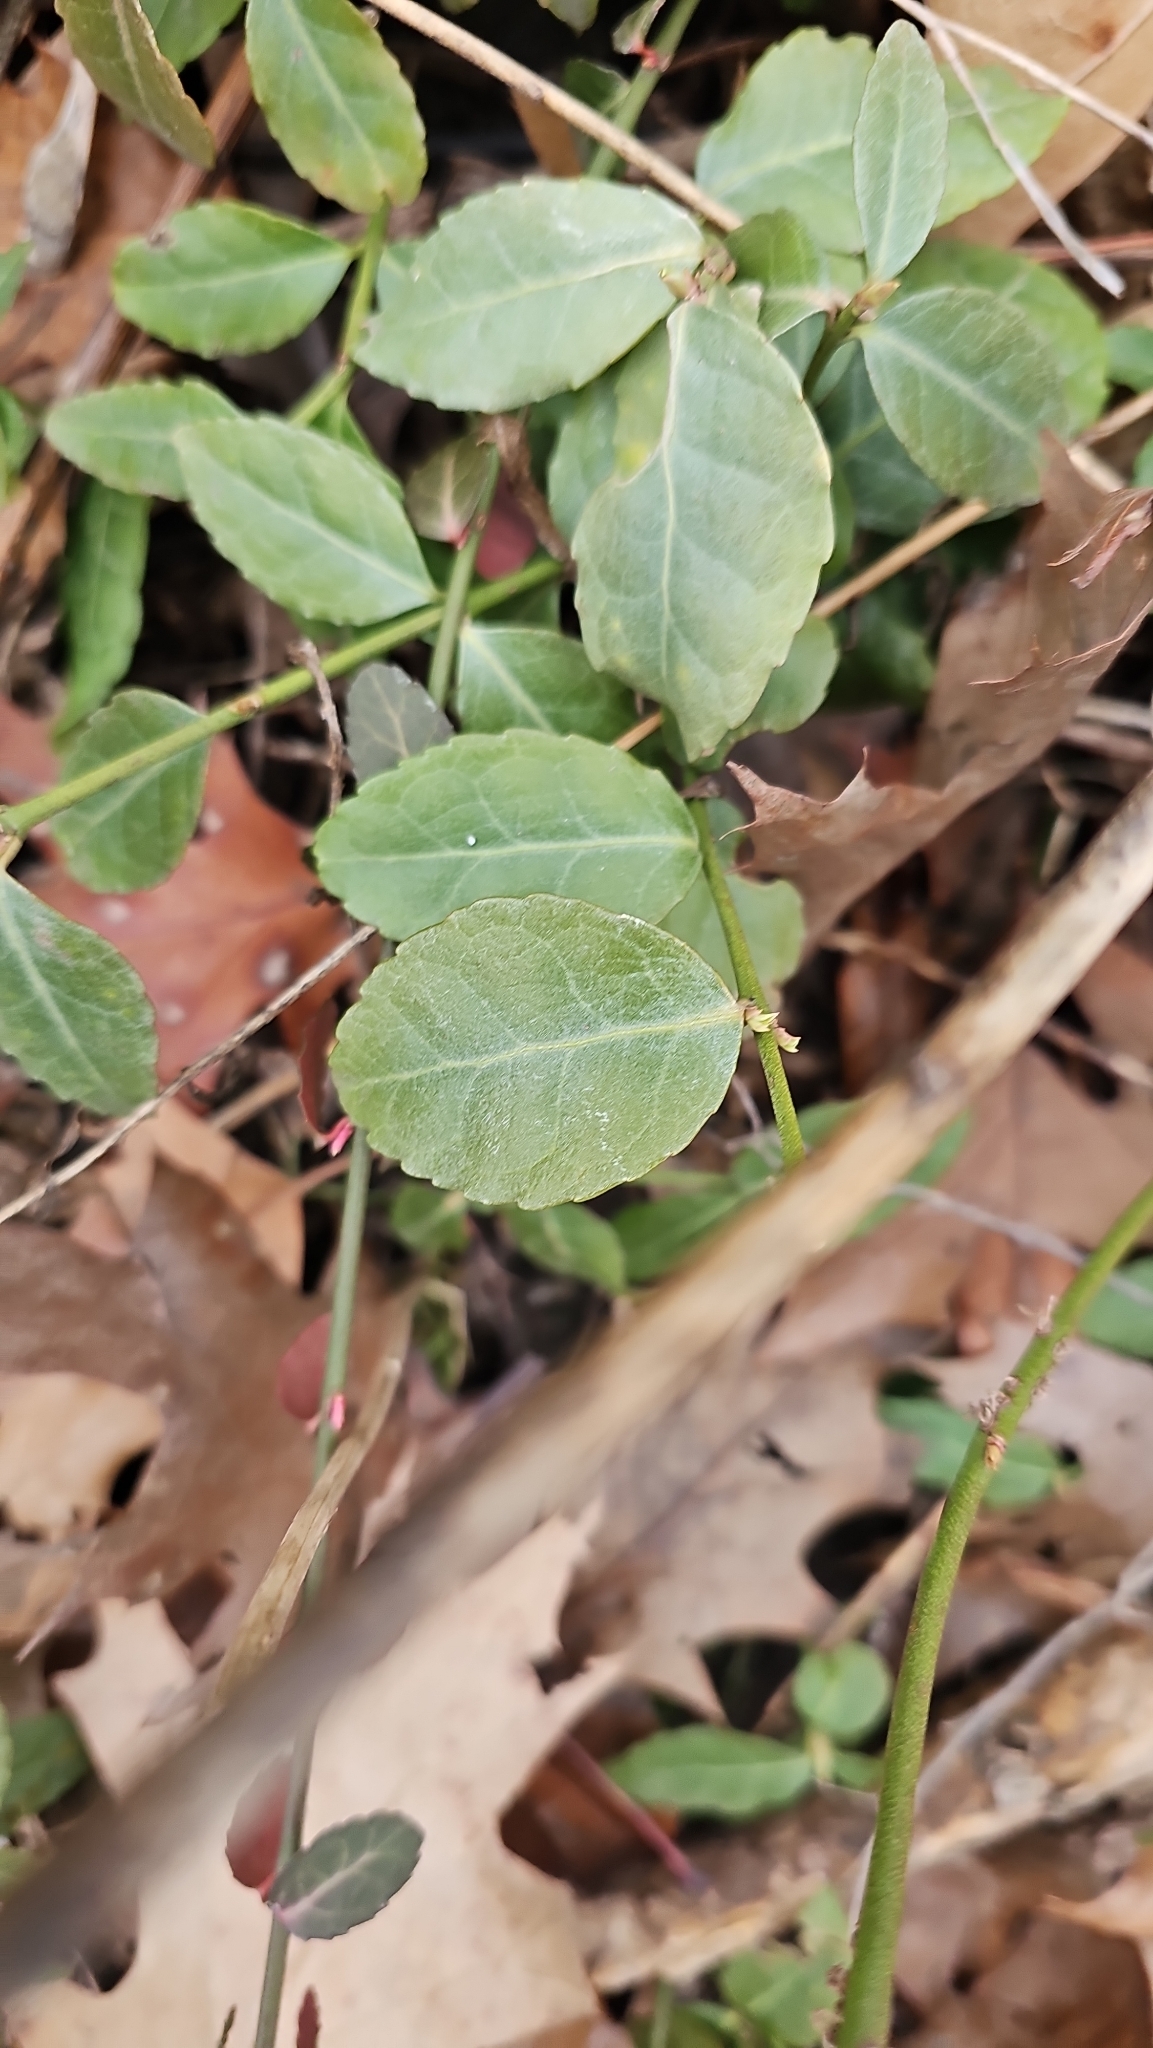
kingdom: Plantae
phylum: Tracheophyta
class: Magnoliopsida
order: Celastrales
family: Celastraceae
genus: Euonymus
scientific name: Euonymus fortunei
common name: Climbing euonymus
